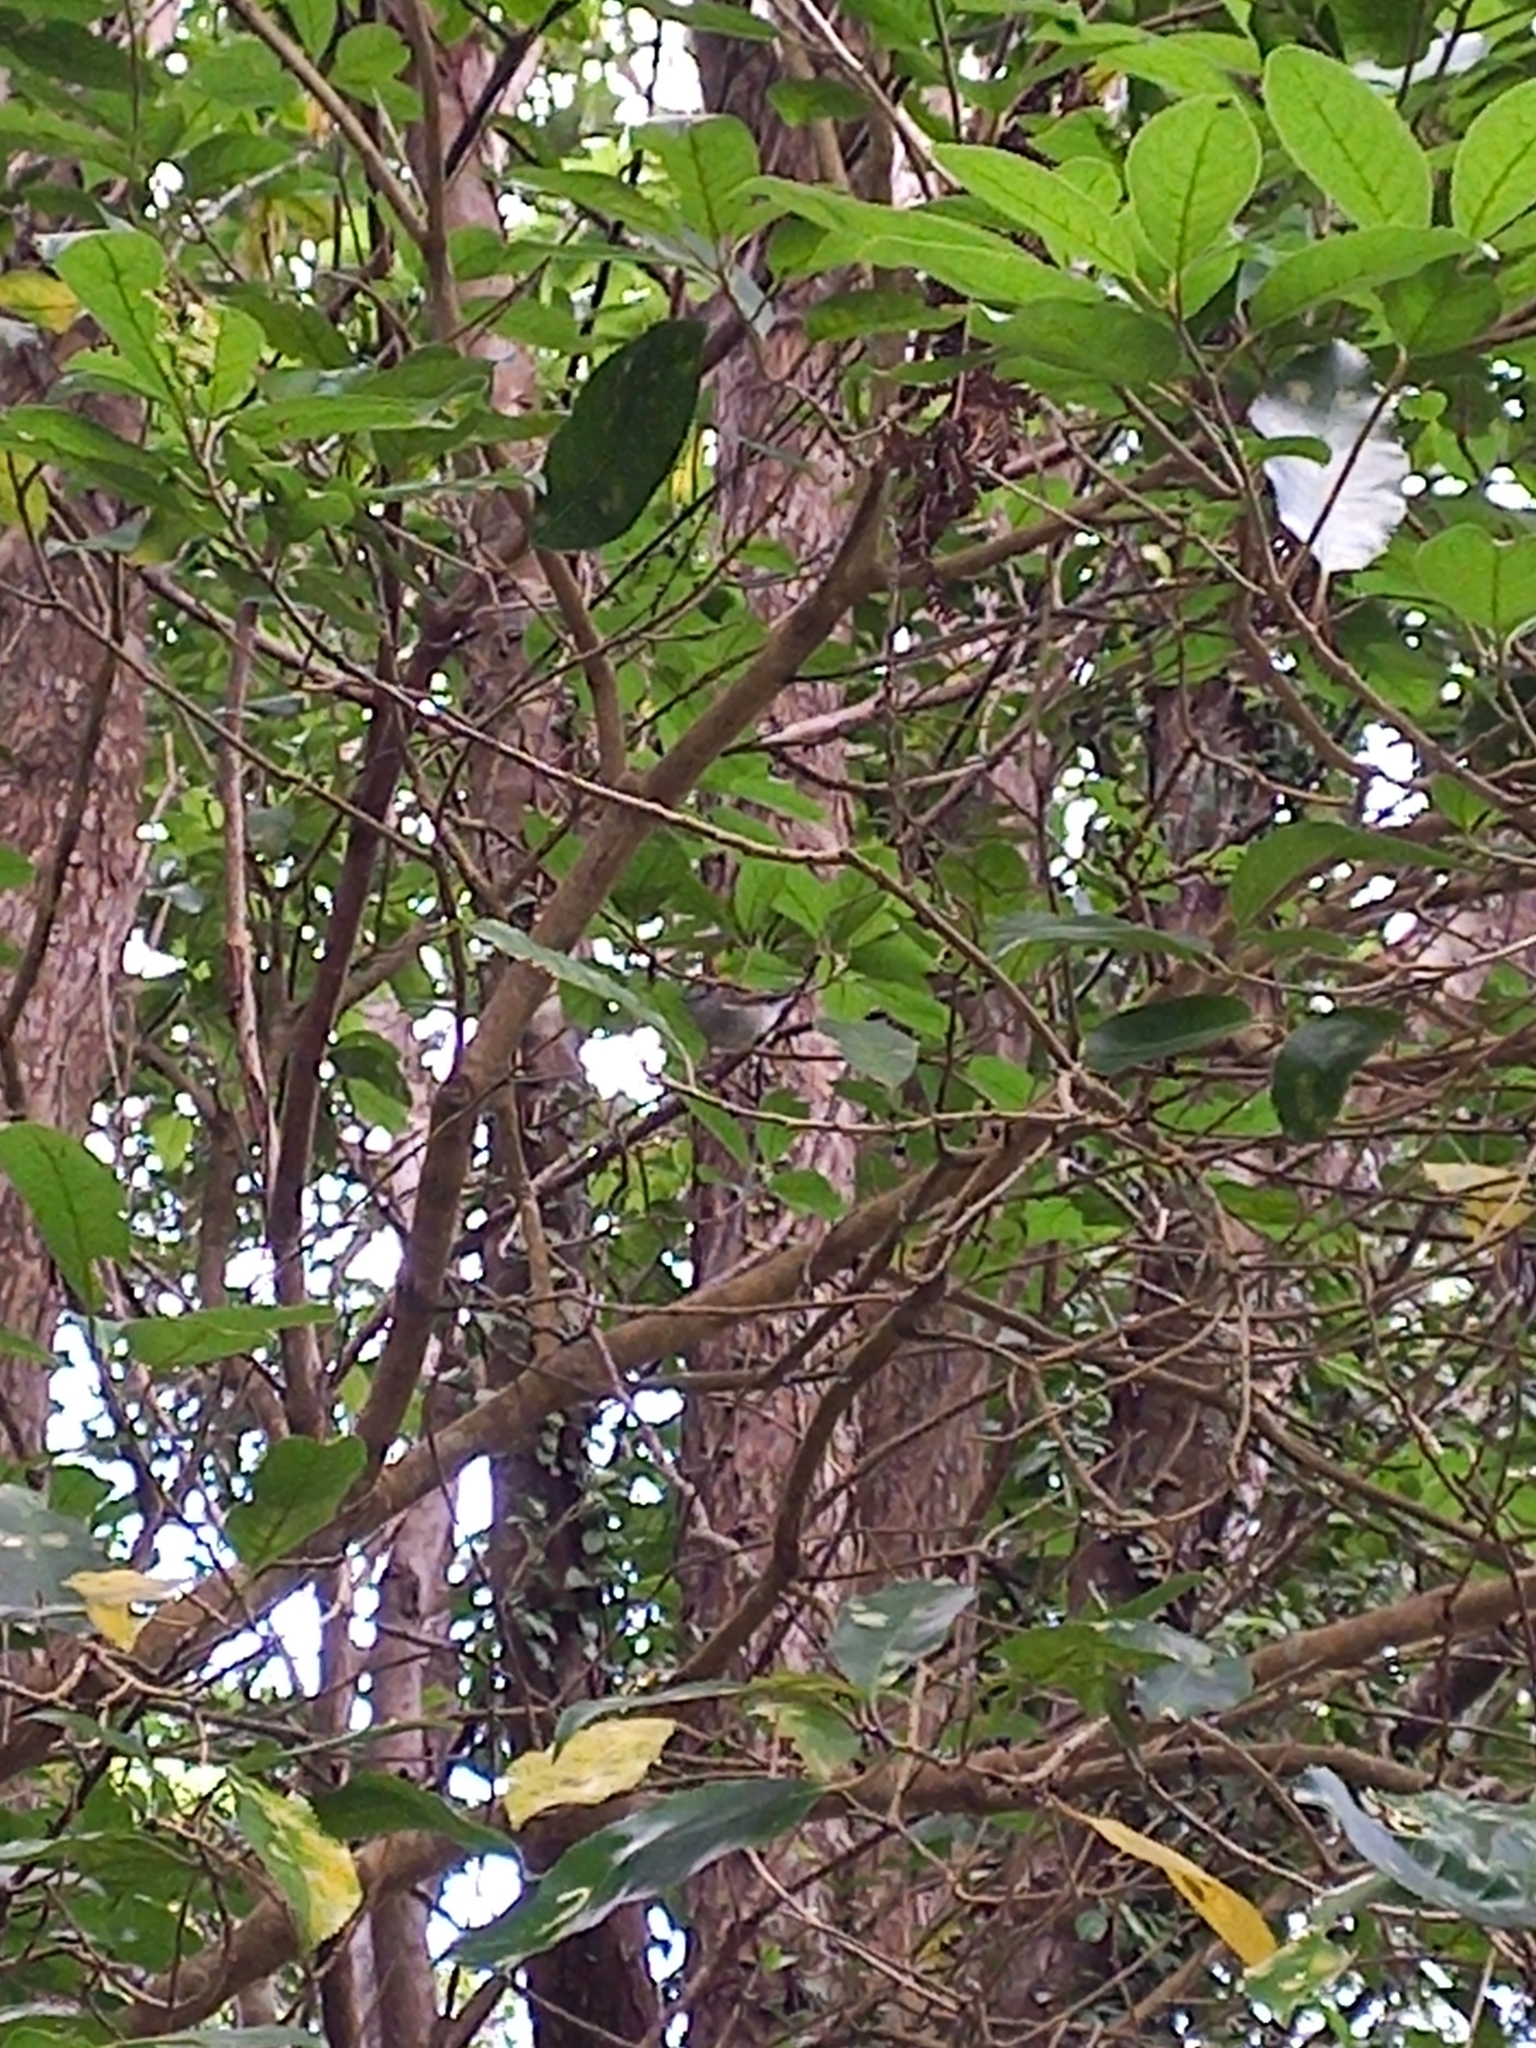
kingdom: Animalia
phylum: Chordata
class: Aves
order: Passeriformes
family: Acanthizidae
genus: Gerygone
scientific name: Gerygone igata
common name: Grey gerygone
